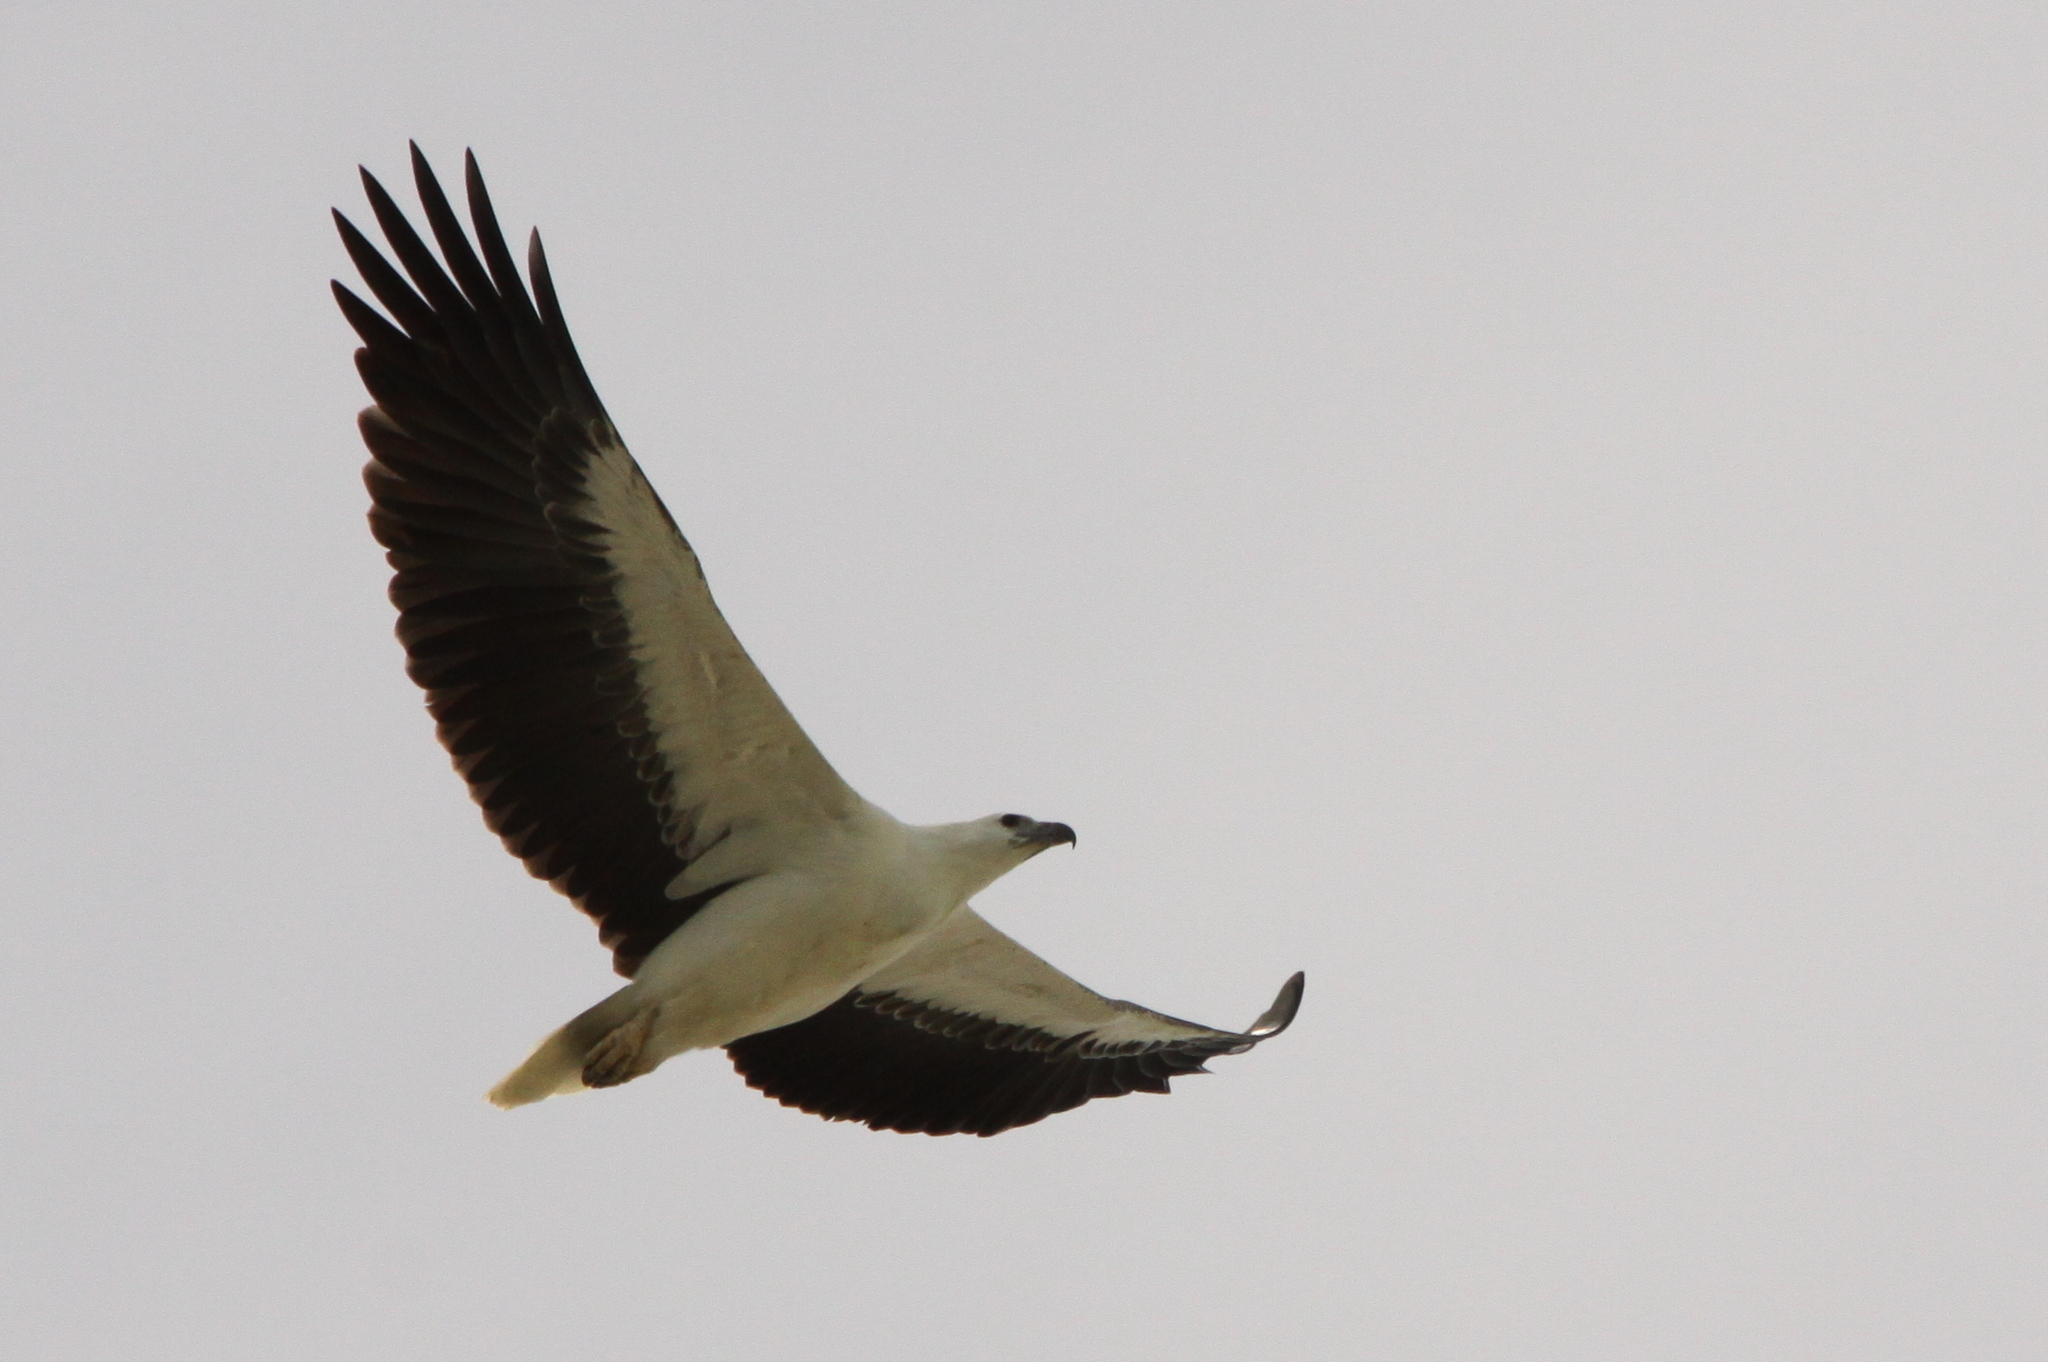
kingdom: Animalia
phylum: Chordata
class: Aves
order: Accipitriformes
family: Accipitridae
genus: Haliaeetus
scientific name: Haliaeetus leucogaster
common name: White-bellied sea eagle
